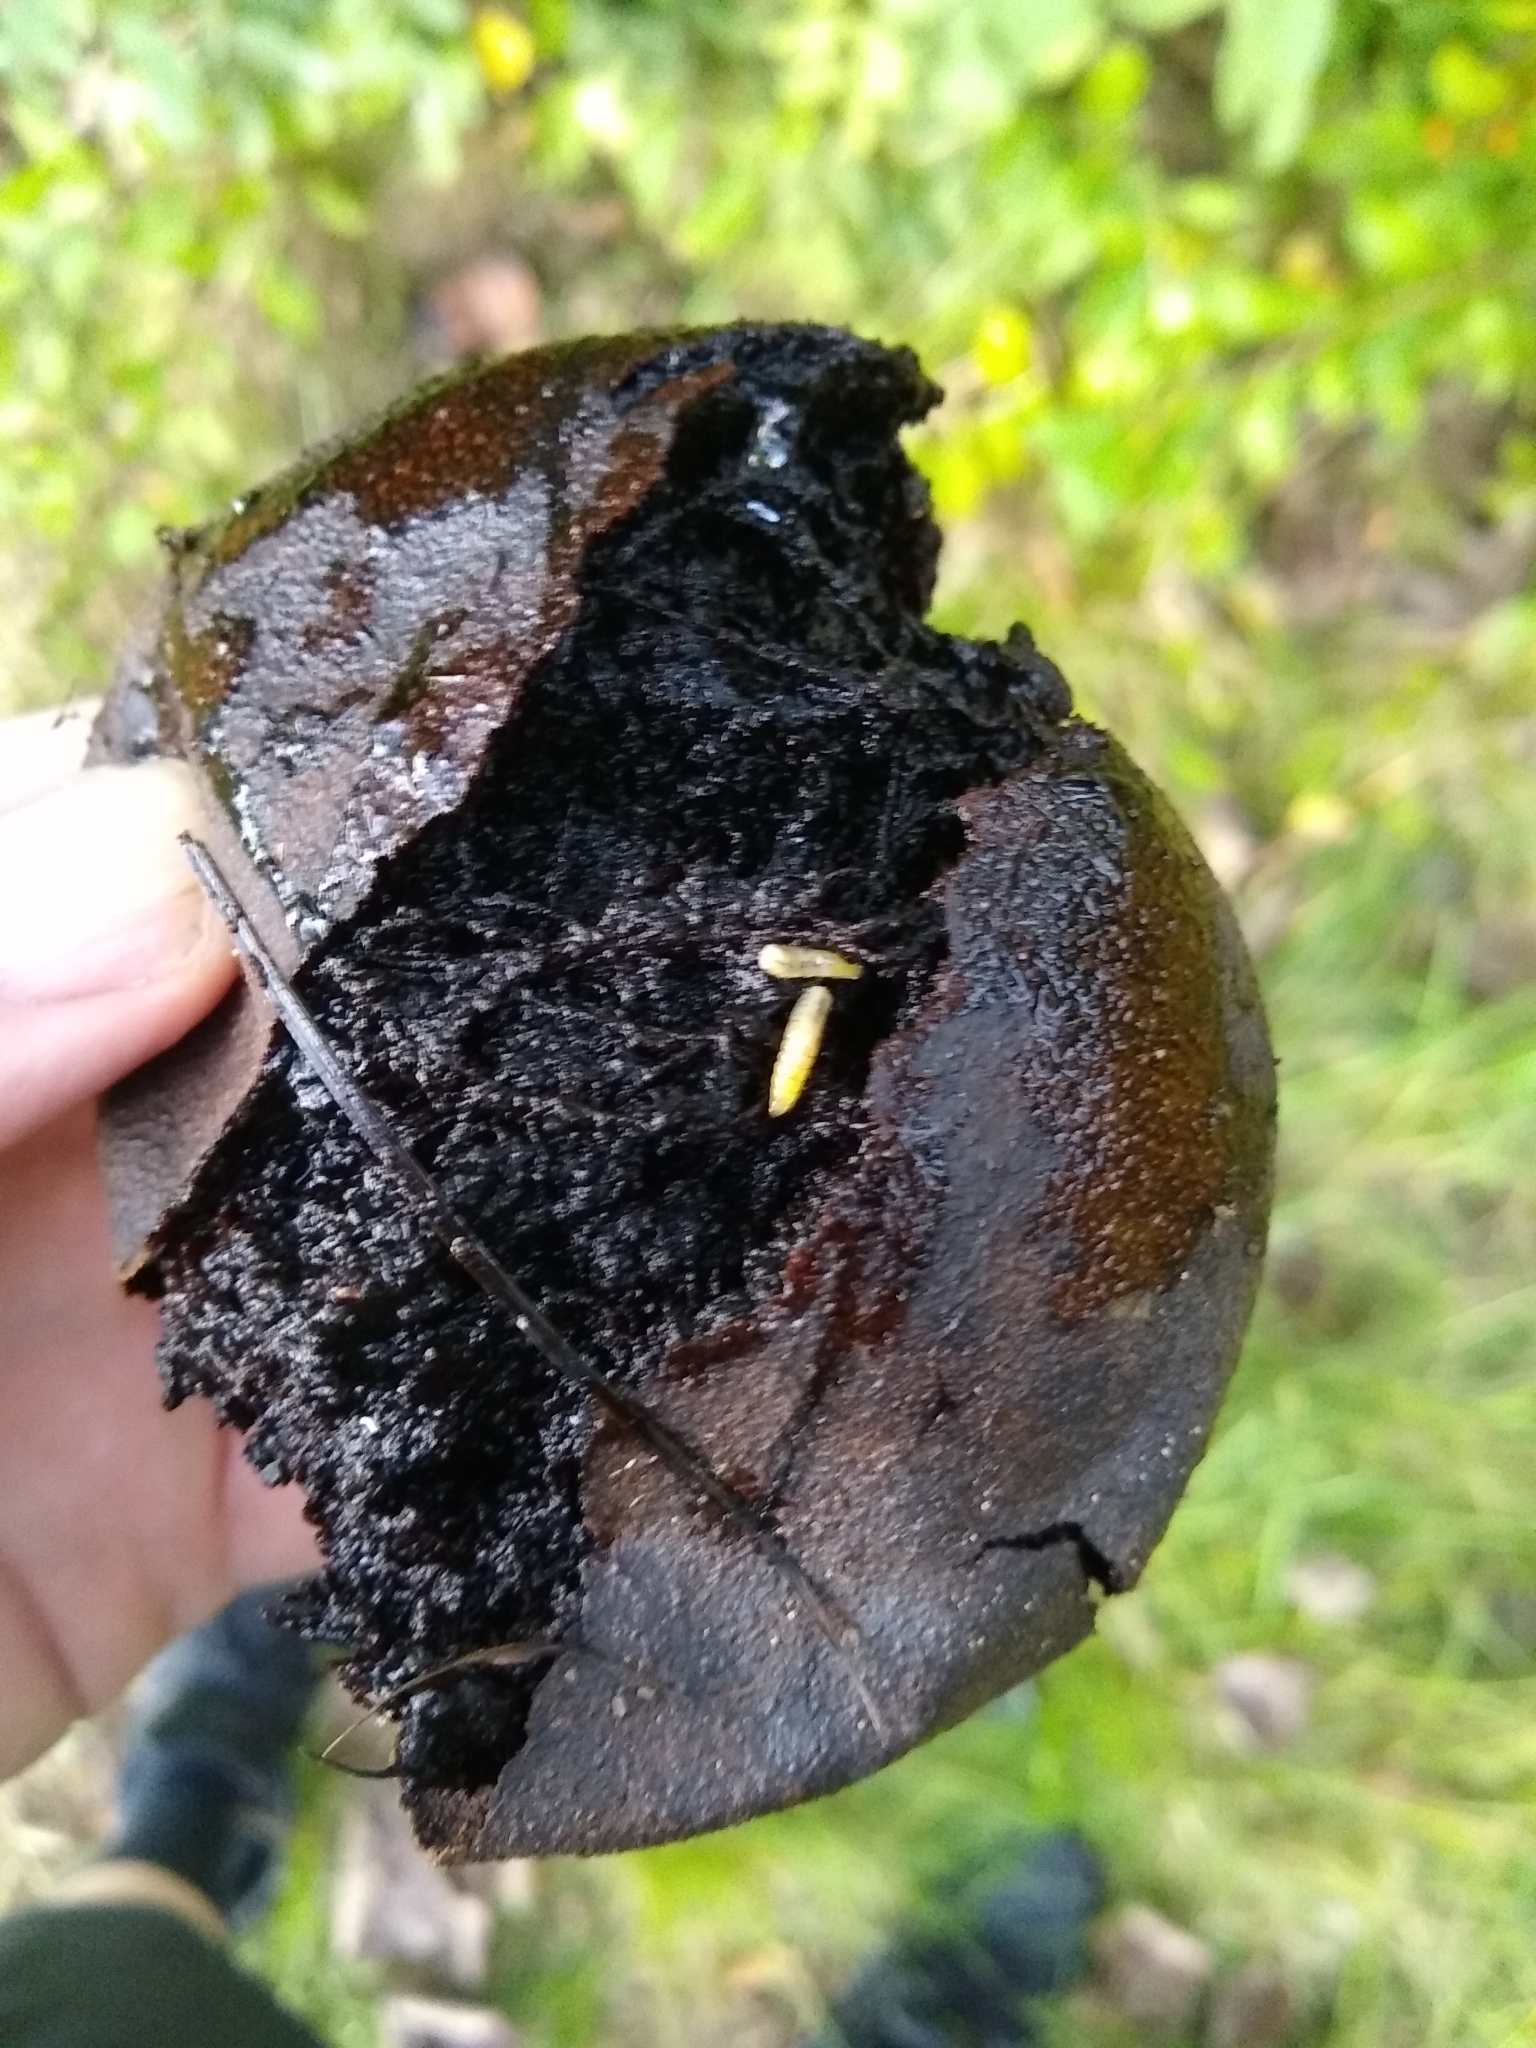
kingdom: Animalia
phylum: Arthropoda
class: Insecta
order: Diptera
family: Tephritidae
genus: Rhagoletis
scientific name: Rhagoletis suavis
